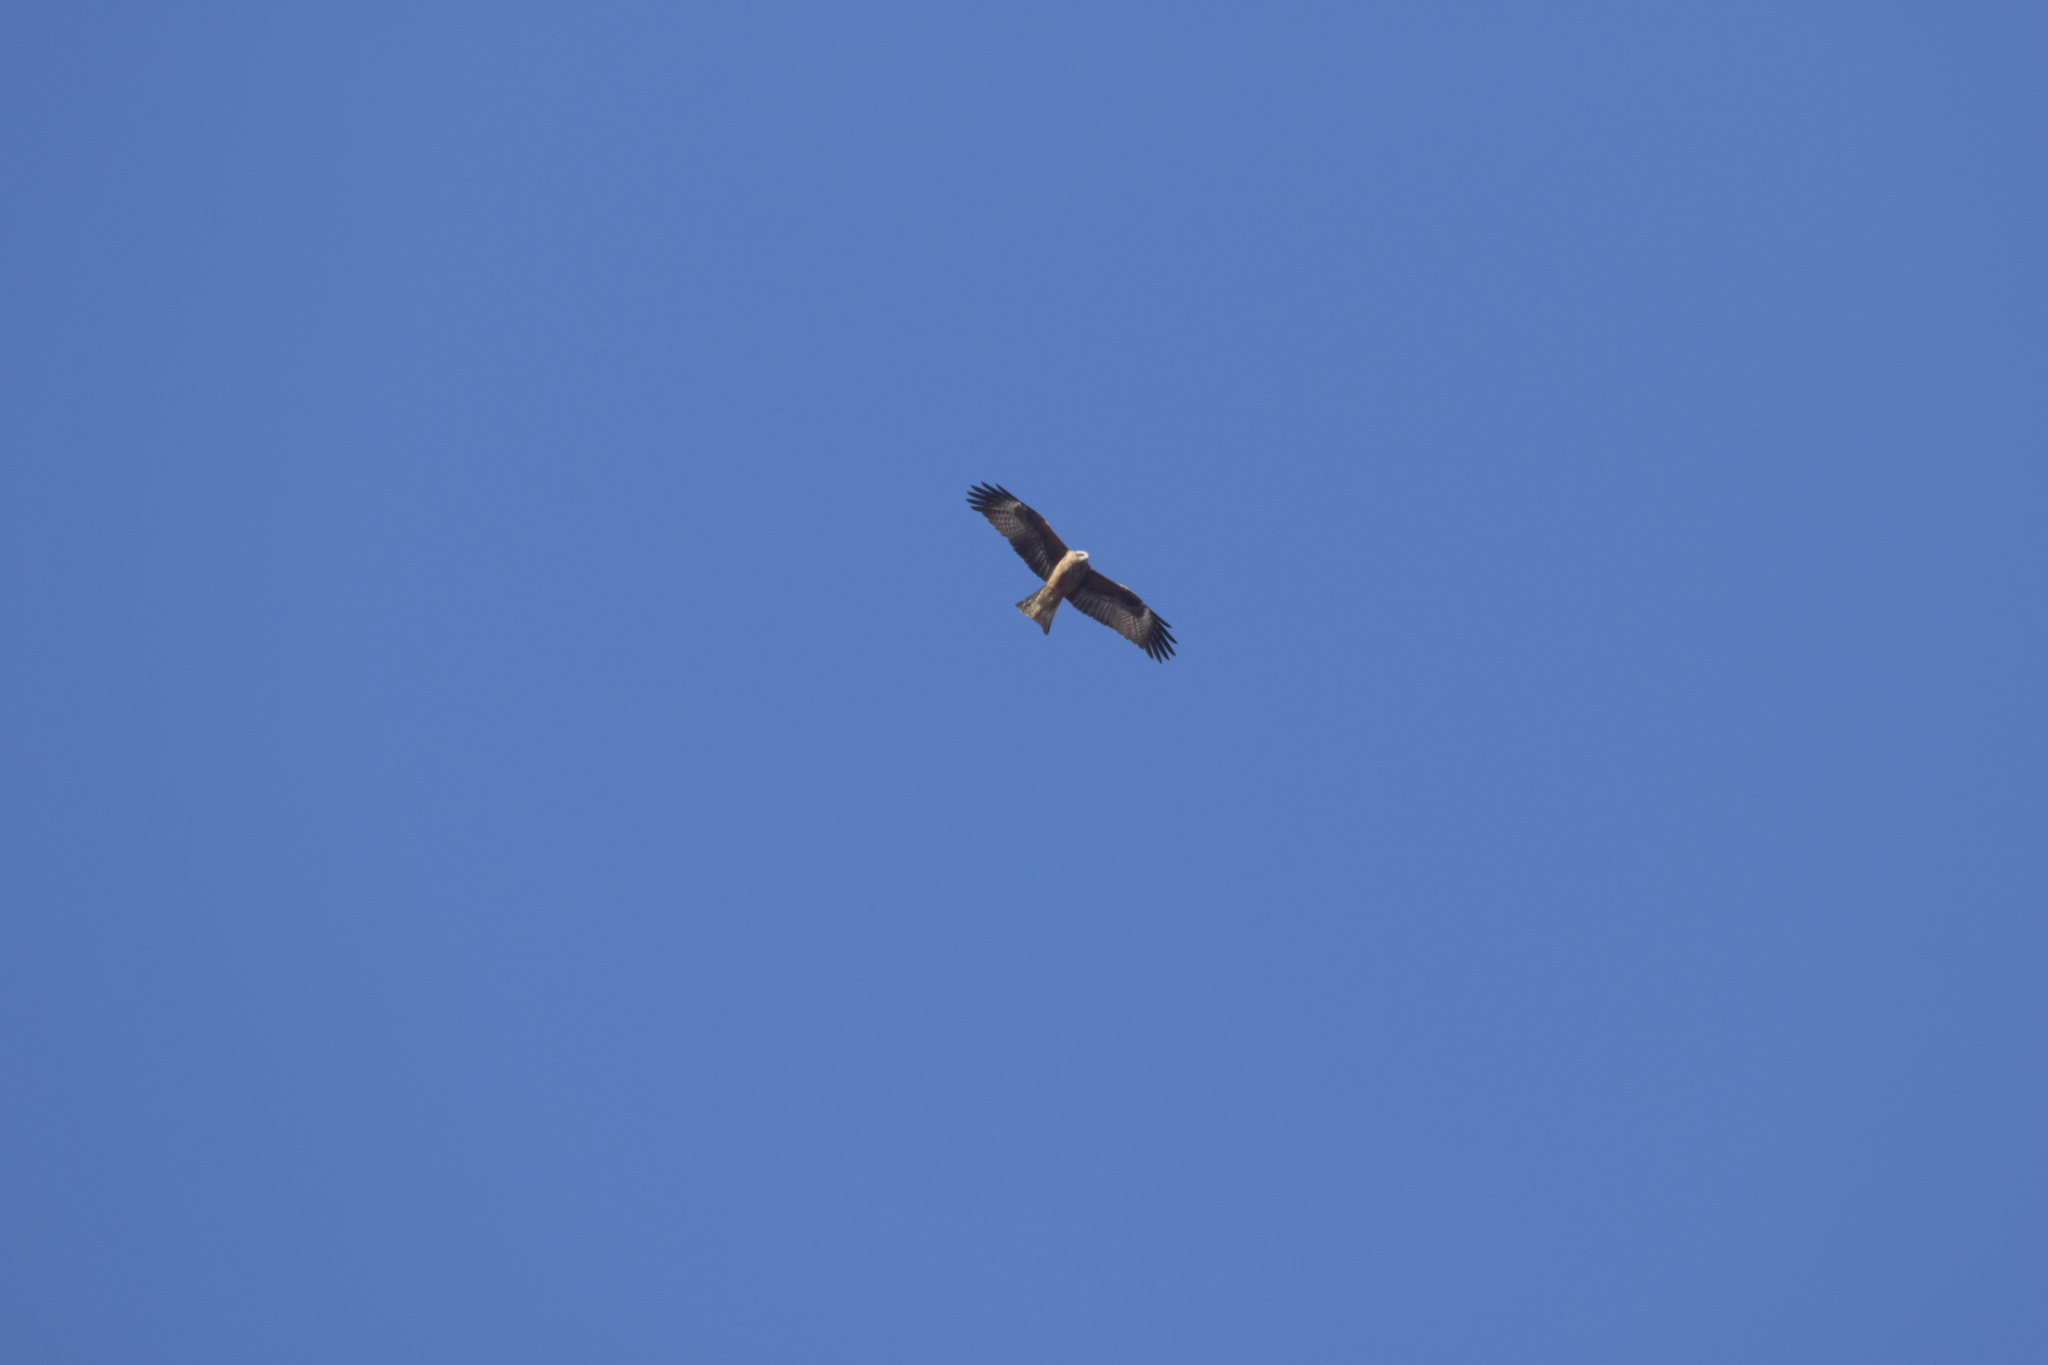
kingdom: Animalia
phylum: Chordata
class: Aves
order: Accipitriformes
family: Accipitridae
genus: Milvus
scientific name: Milvus migrans
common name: Black kite
